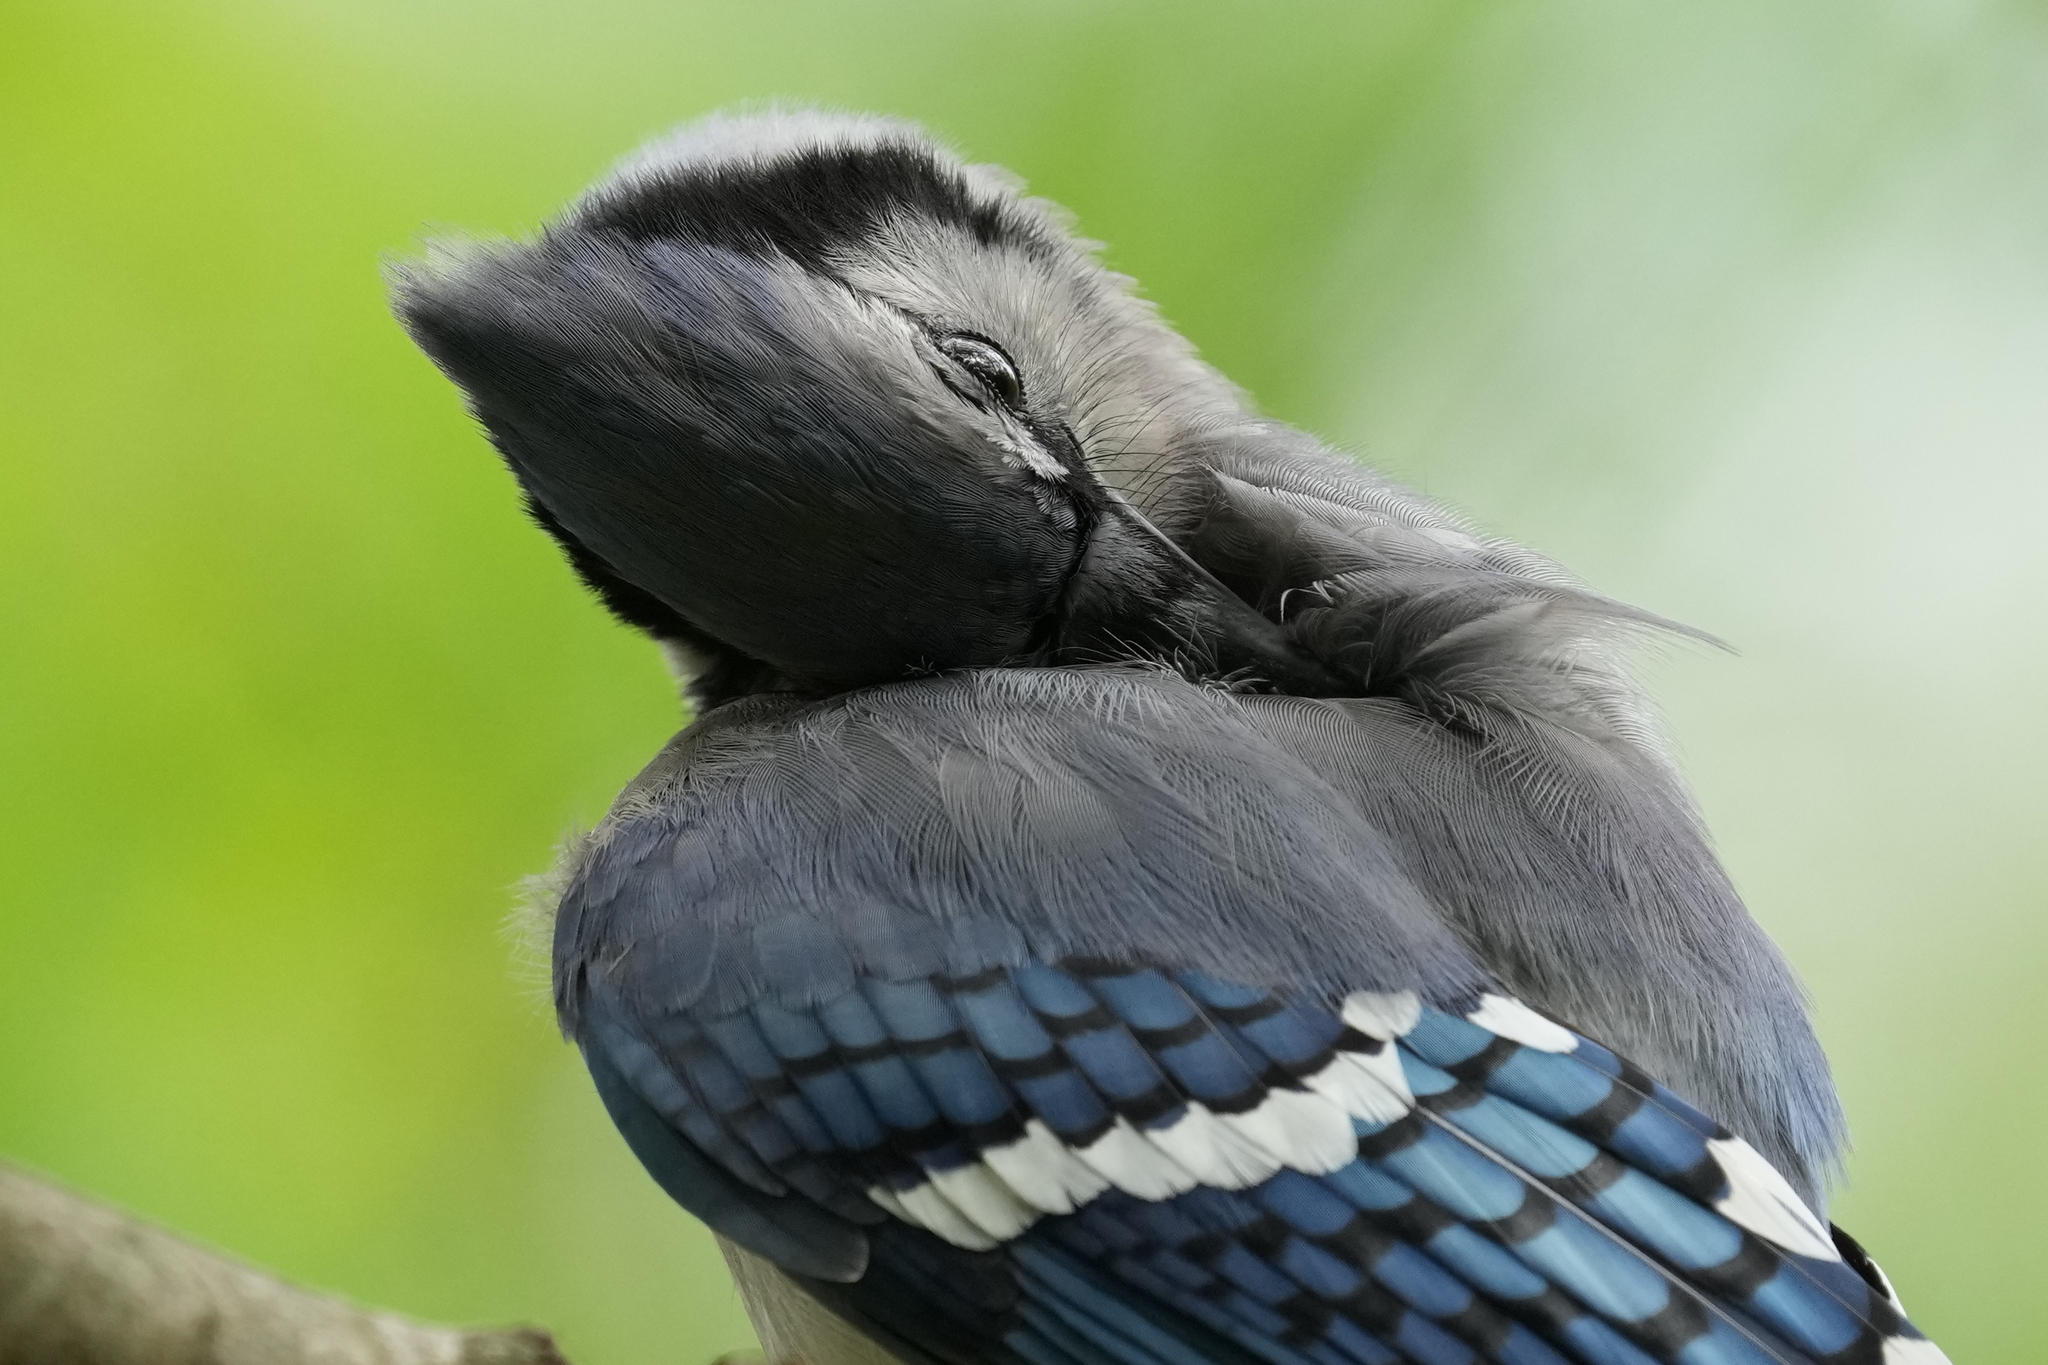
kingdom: Animalia
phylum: Chordata
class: Aves
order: Passeriformes
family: Corvidae
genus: Cyanocitta
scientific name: Cyanocitta cristata
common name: Blue jay
